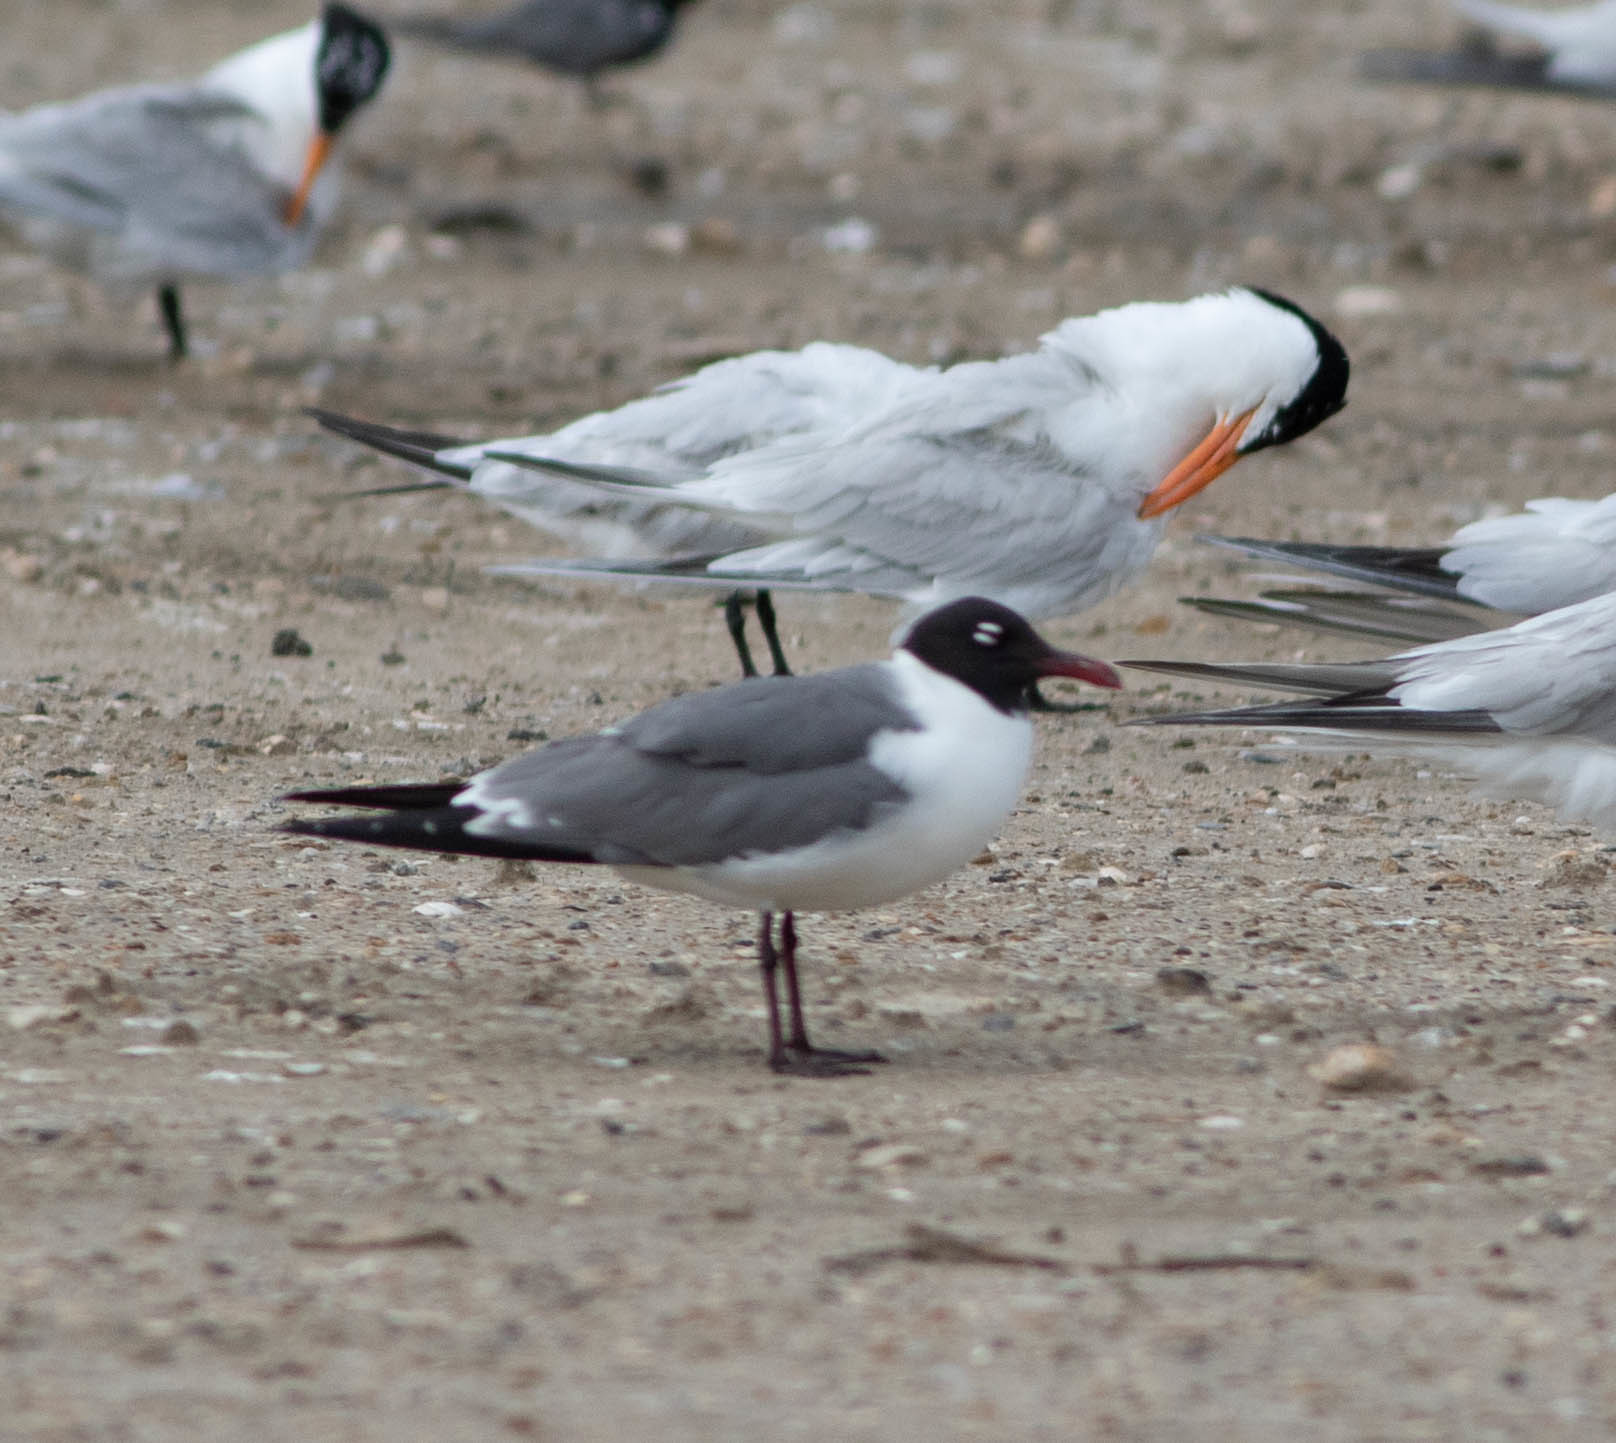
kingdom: Animalia
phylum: Chordata
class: Aves
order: Charadriiformes
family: Laridae
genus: Leucophaeus
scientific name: Leucophaeus atricilla
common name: Laughing gull
